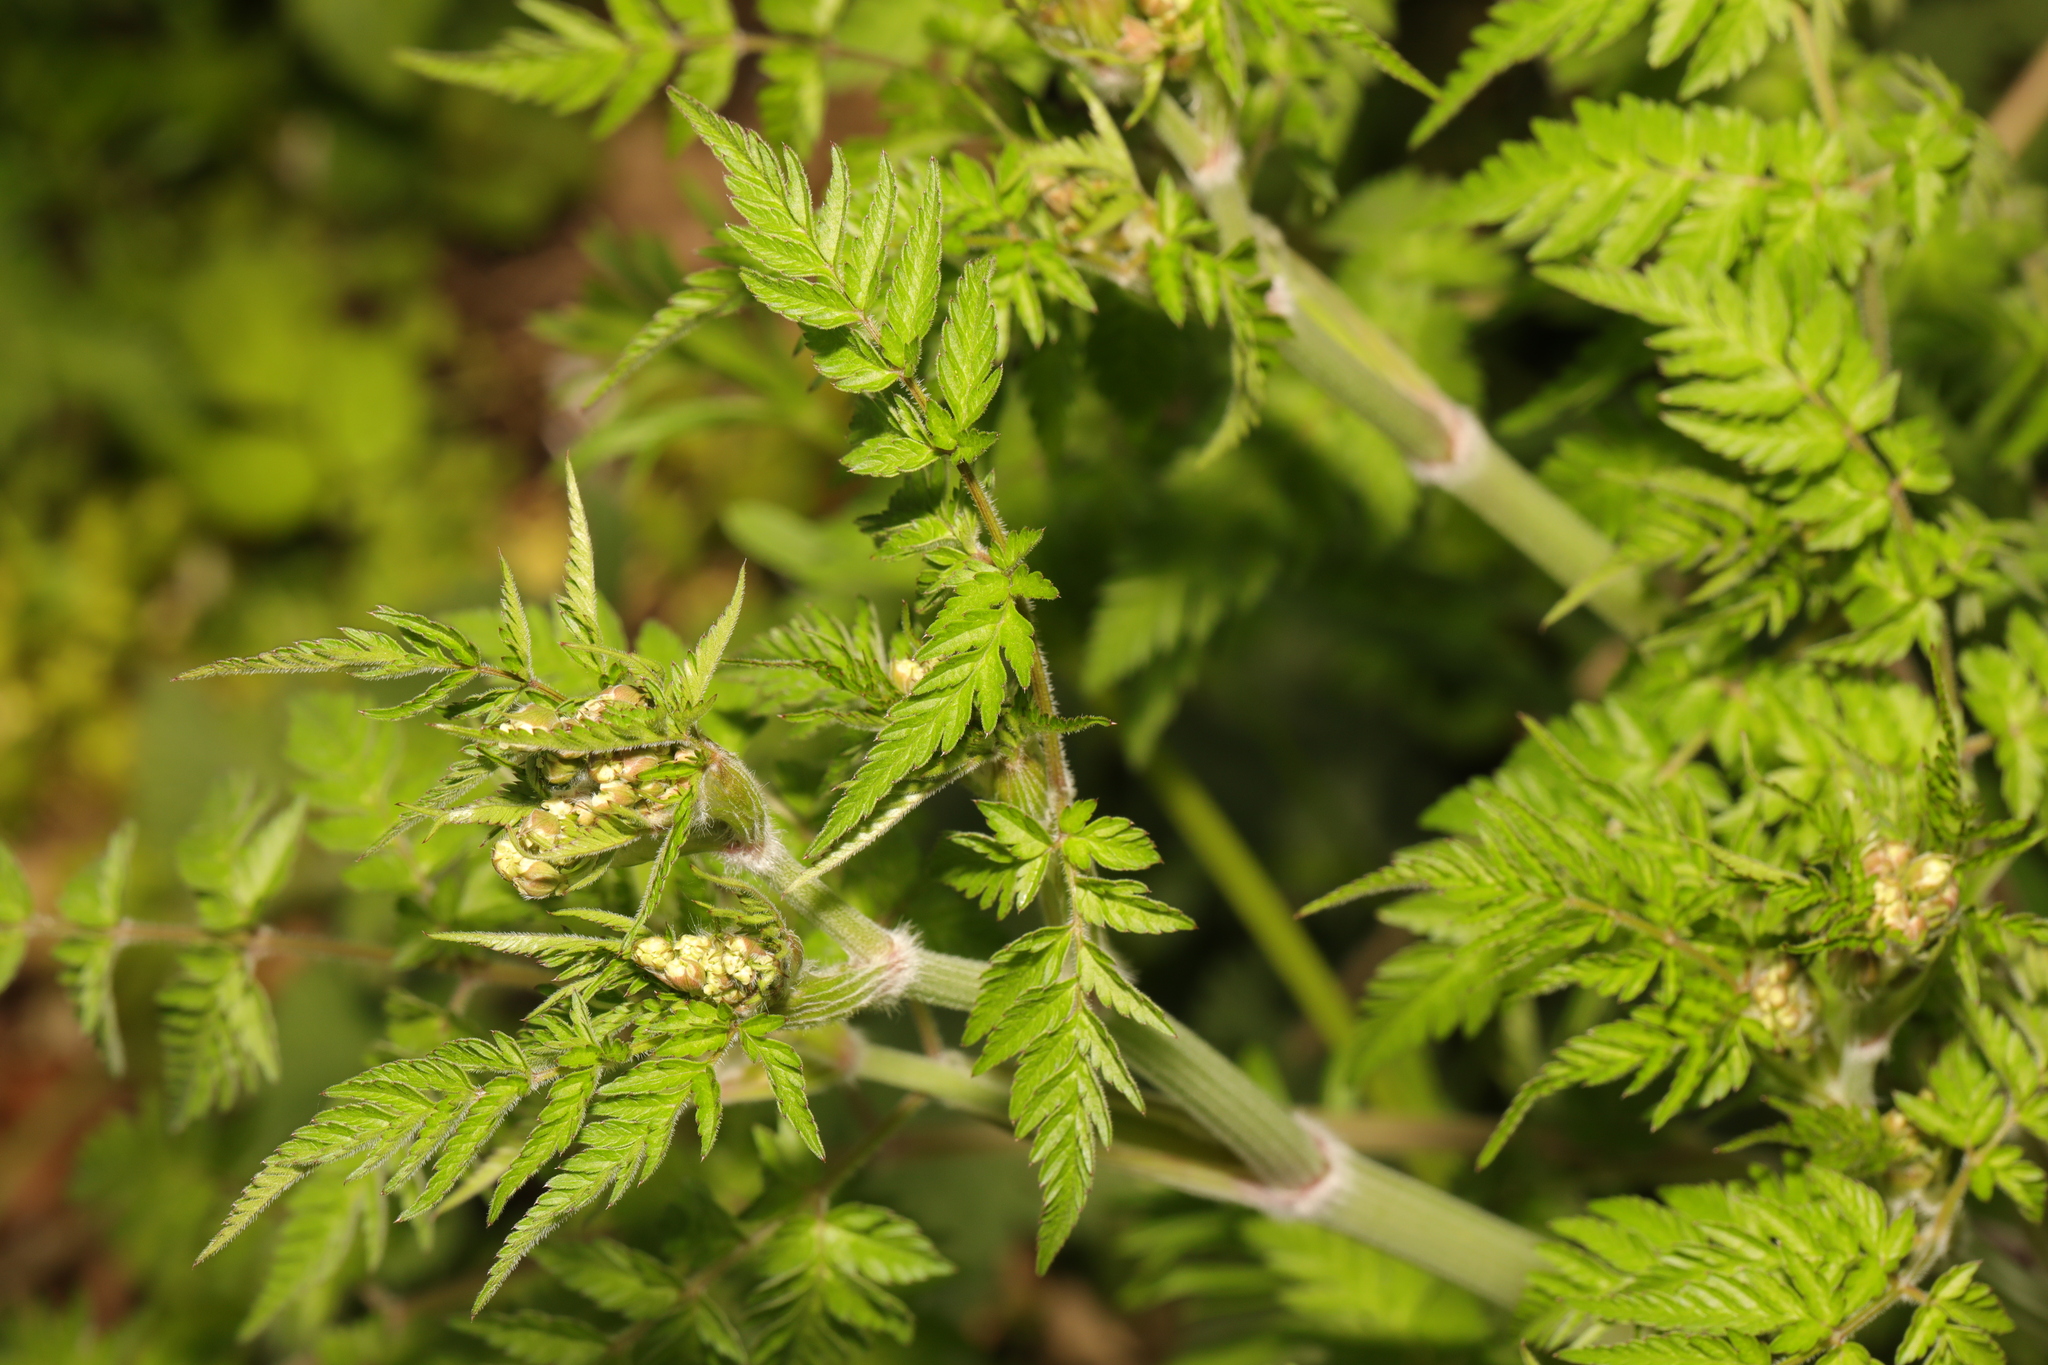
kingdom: Plantae
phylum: Tracheophyta
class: Magnoliopsida
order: Apiales
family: Apiaceae
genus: Anthriscus
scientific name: Anthriscus sylvestris
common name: Cow parsley
